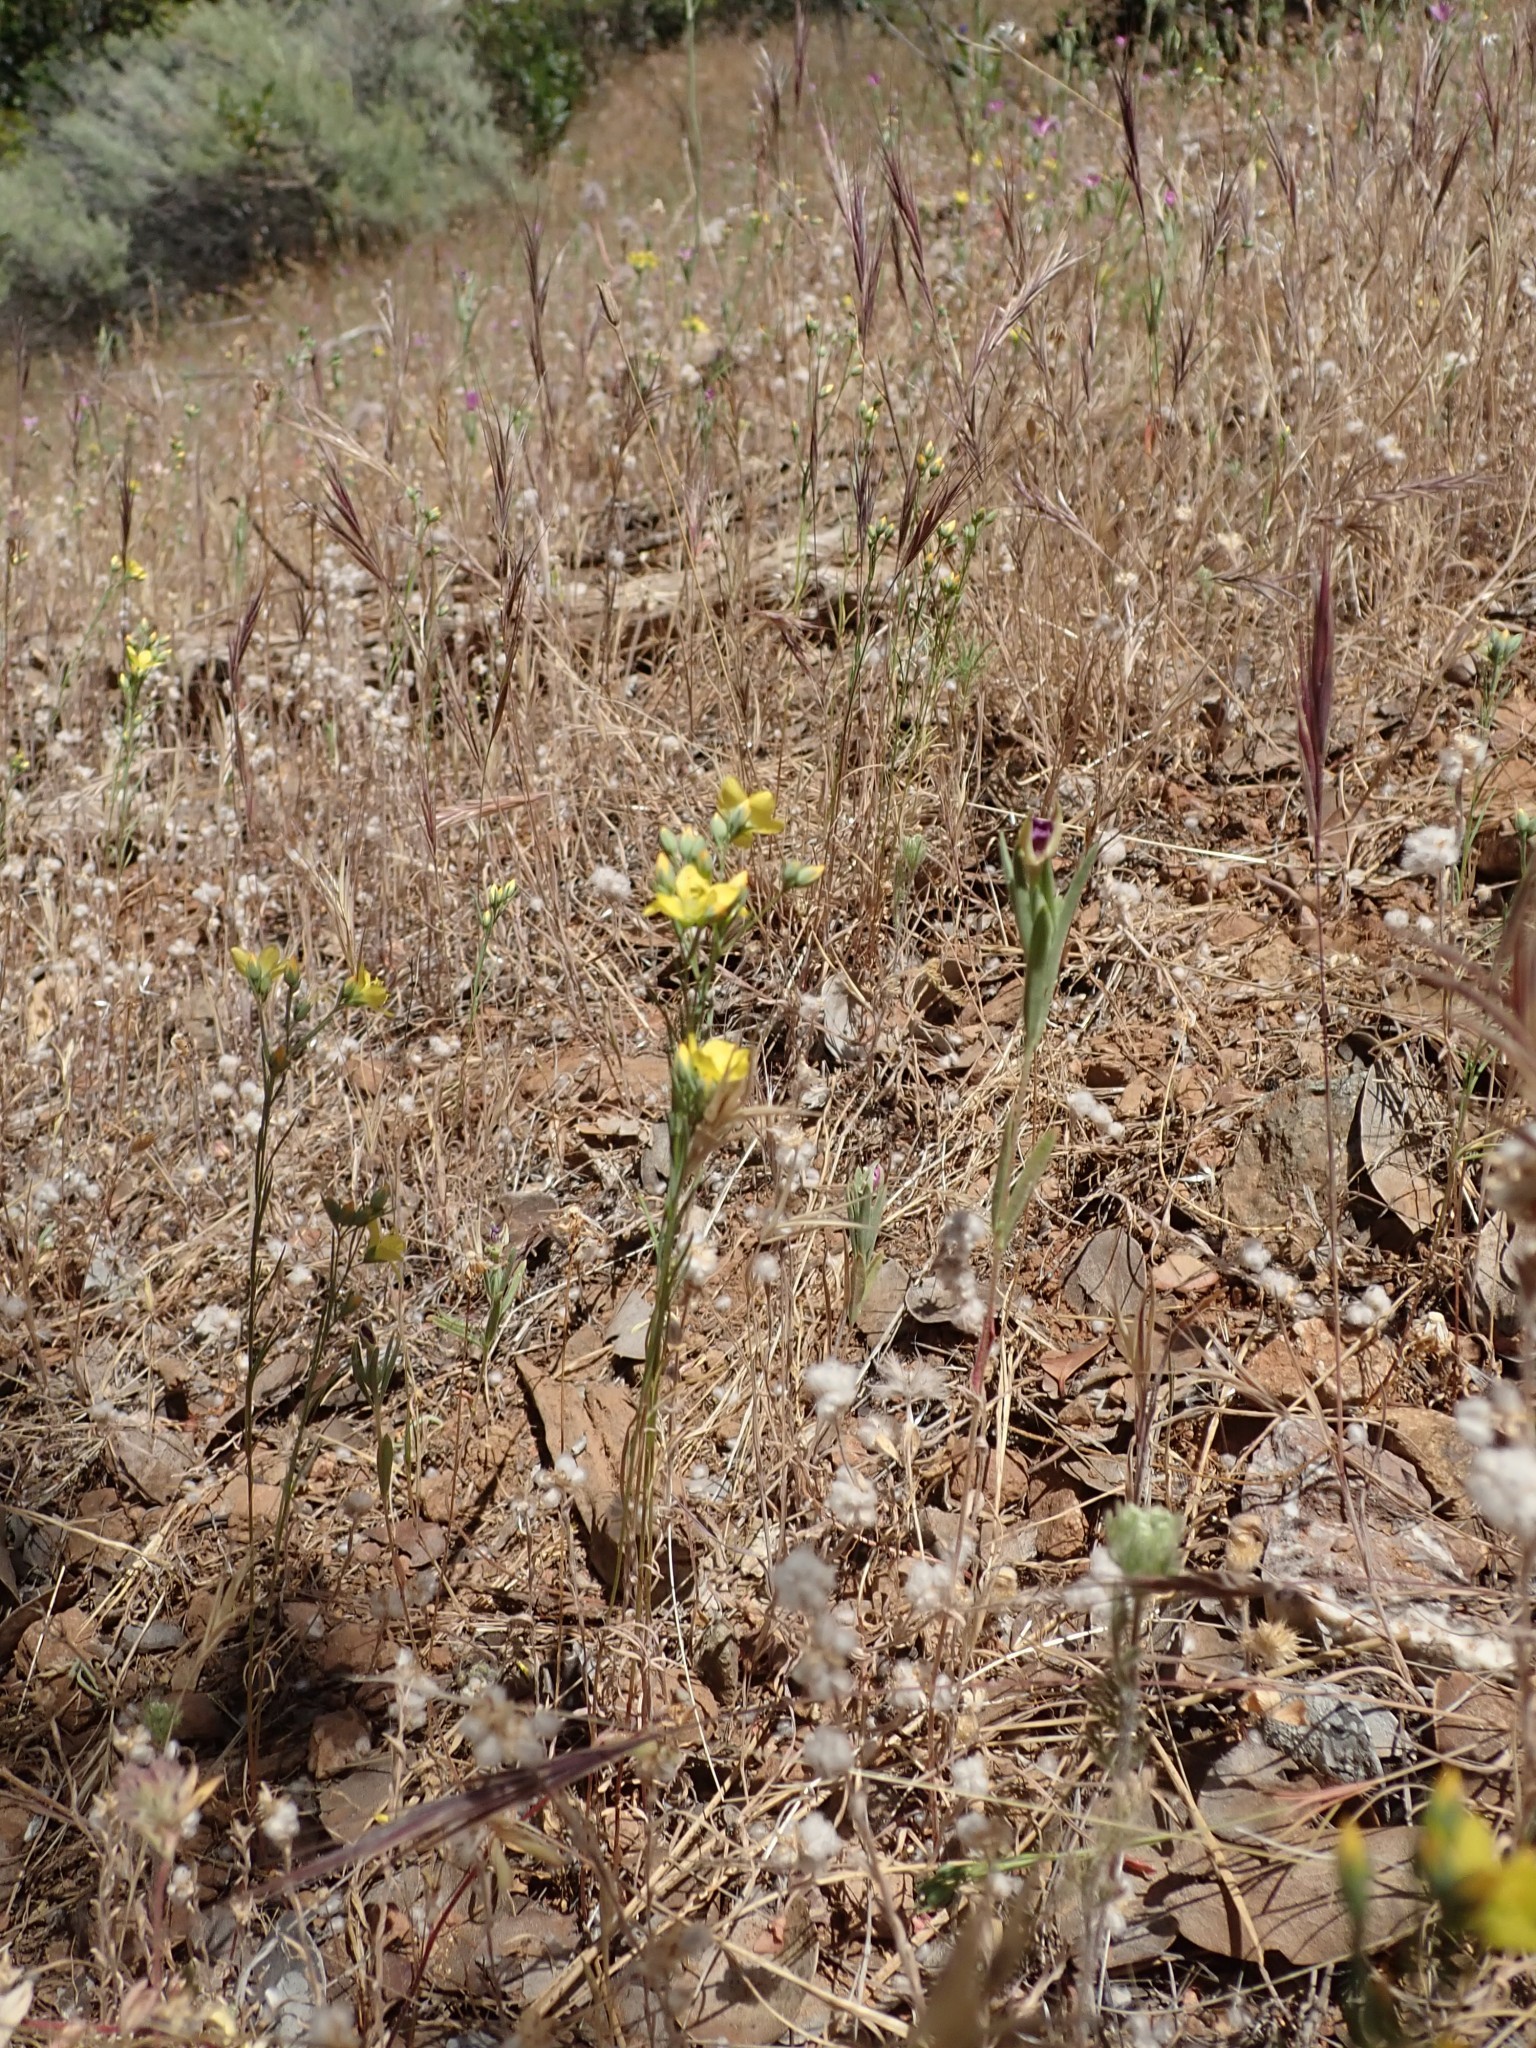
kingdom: Plantae
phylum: Tracheophyta
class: Magnoliopsida
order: Malpighiales
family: Linaceae
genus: Hesperolinon
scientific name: Hesperolinon breweri
